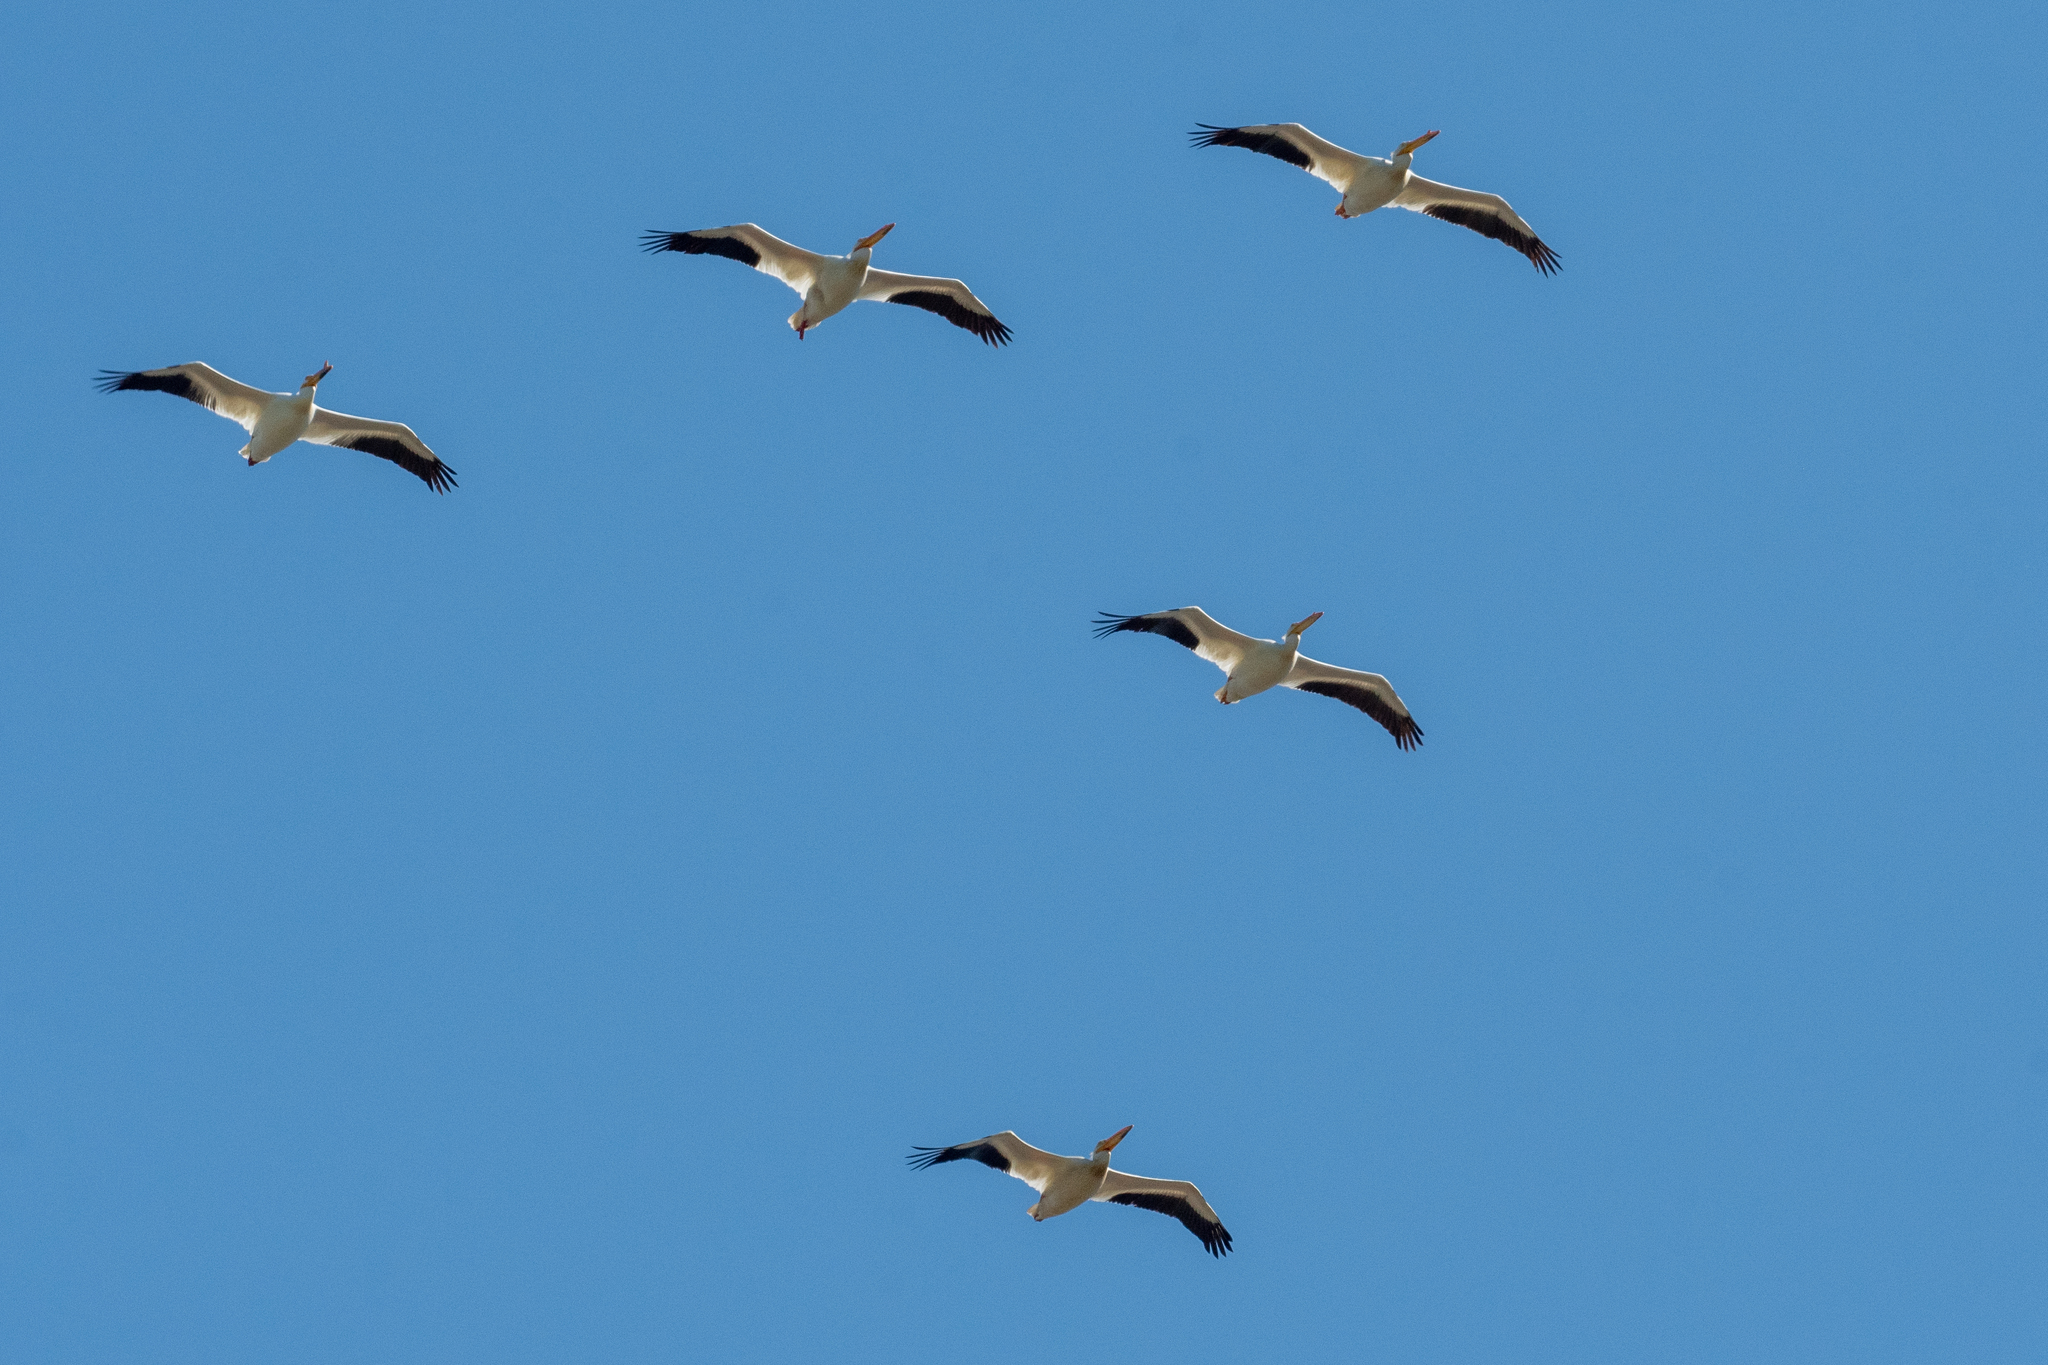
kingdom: Animalia
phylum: Chordata
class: Aves
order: Pelecaniformes
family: Pelecanidae
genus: Pelecanus
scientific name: Pelecanus erythrorhynchos
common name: American white pelican
